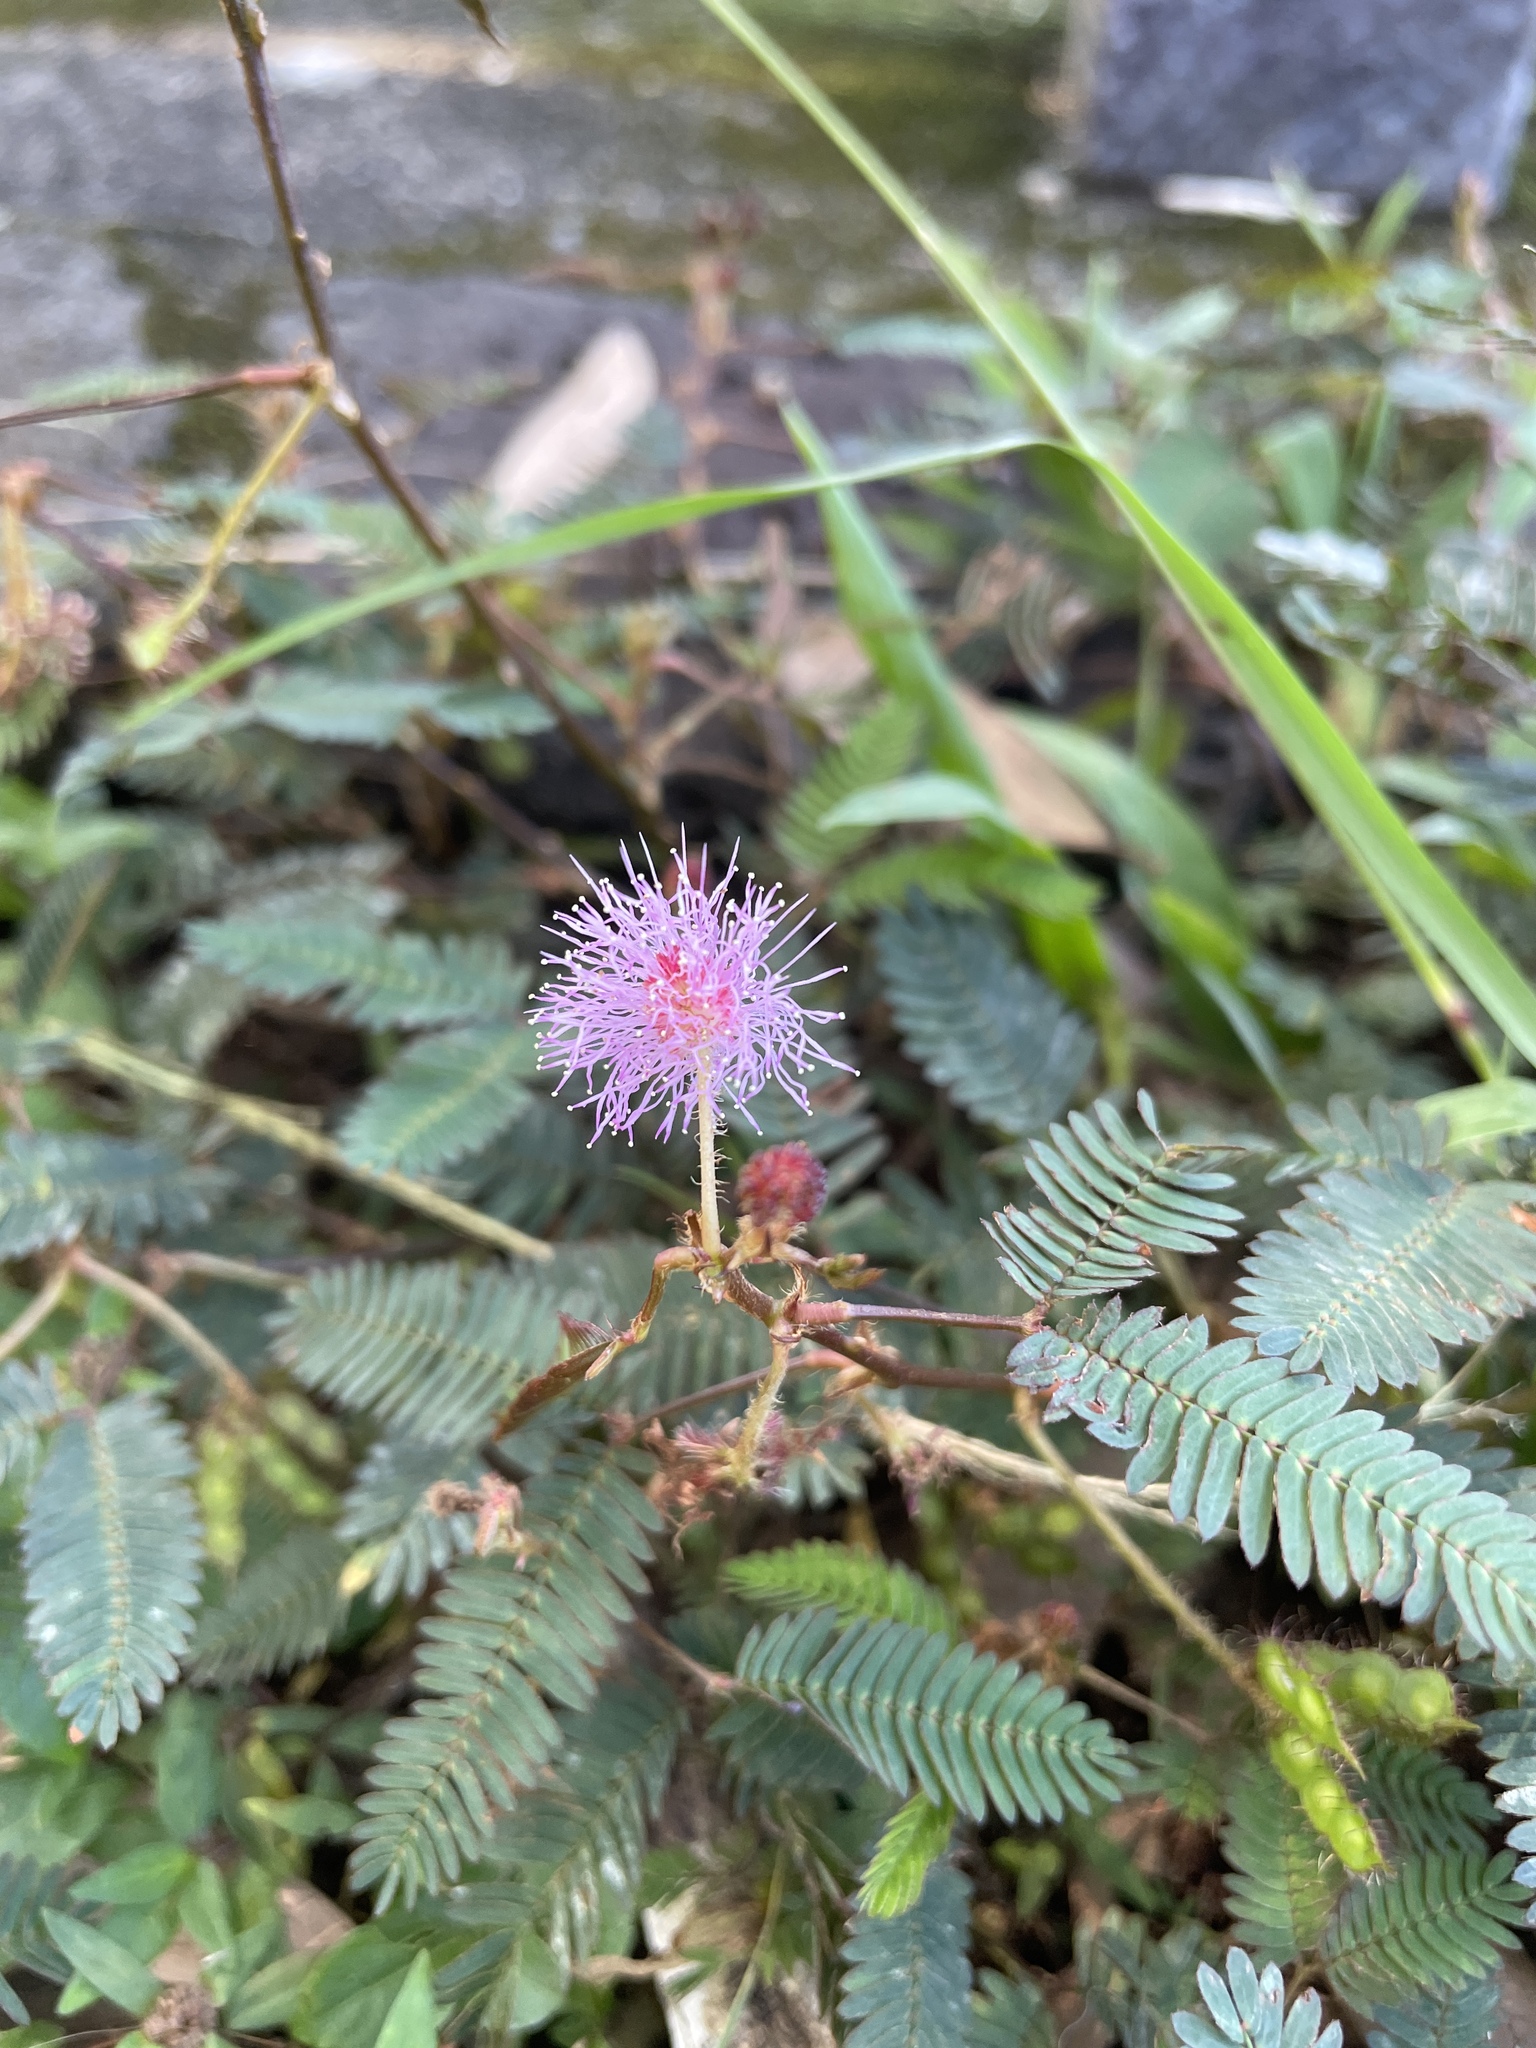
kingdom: Plantae
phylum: Tracheophyta
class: Magnoliopsida
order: Fabales
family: Fabaceae
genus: Mimosa
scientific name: Mimosa pudica
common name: Sensitive plant
